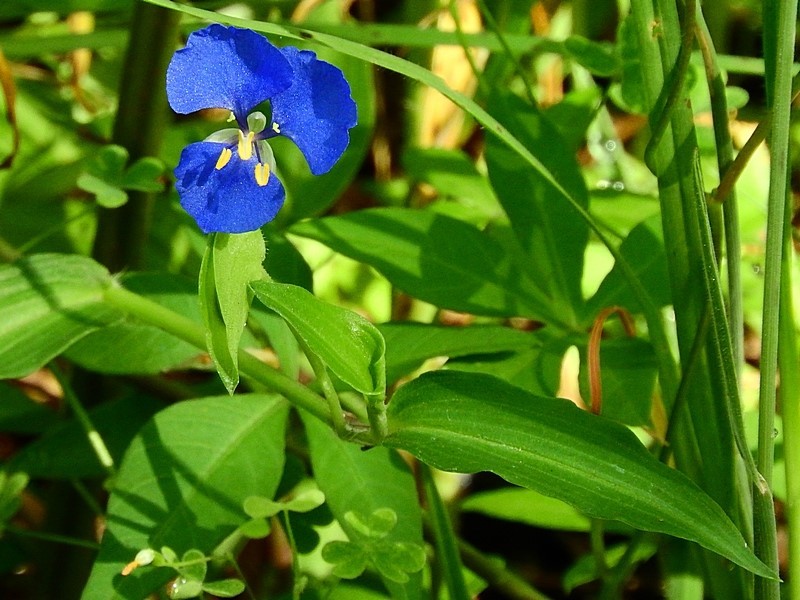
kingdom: Plantae
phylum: Tracheophyta
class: Liliopsida
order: Commelinales
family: Commelinaceae
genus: Commelina
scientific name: Commelina cyanea
